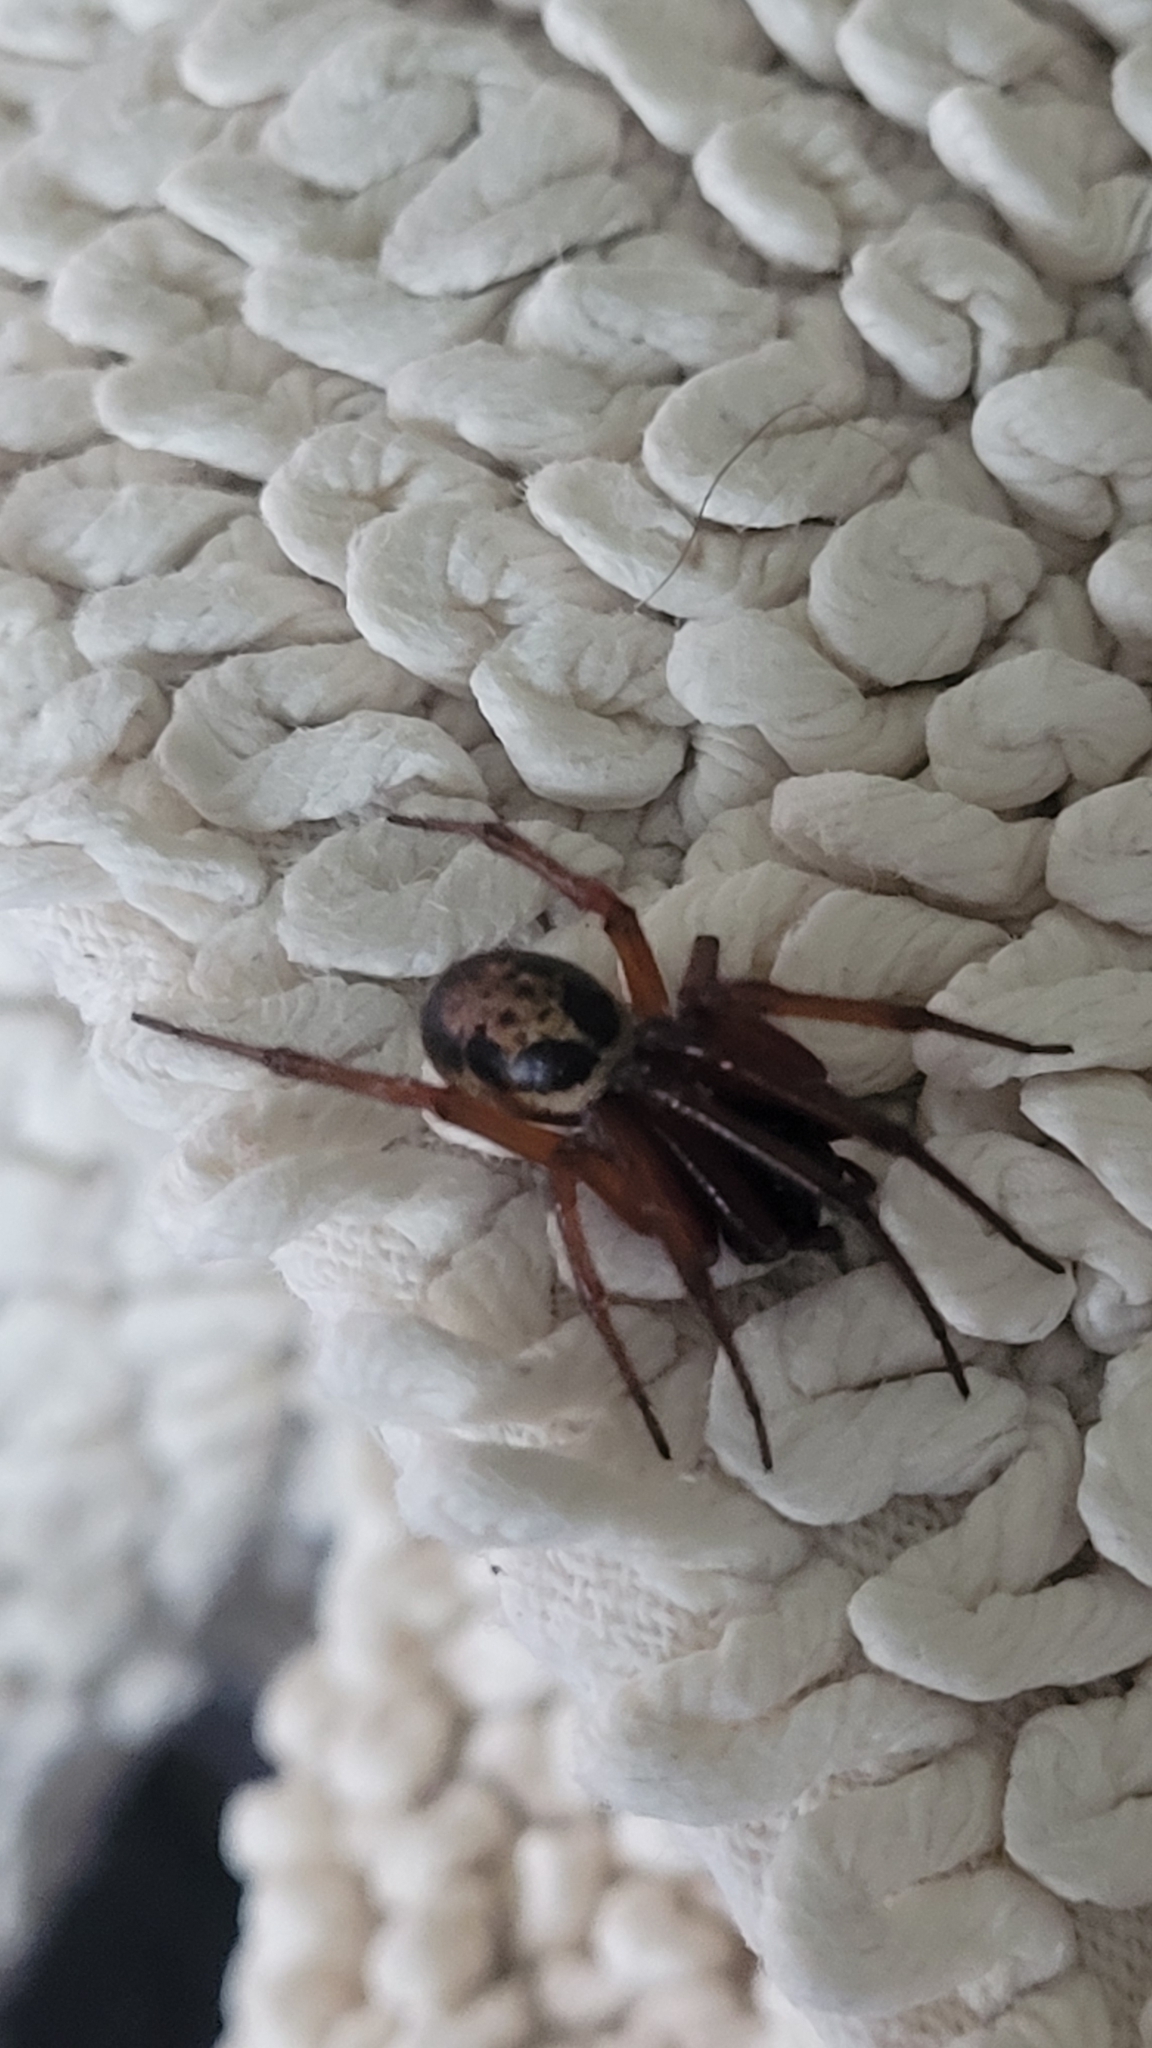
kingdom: Animalia
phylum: Arthropoda
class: Arachnida
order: Araneae
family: Theridiidae
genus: Steatoda
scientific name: Steatoda nobilis
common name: Cobweb weaver
